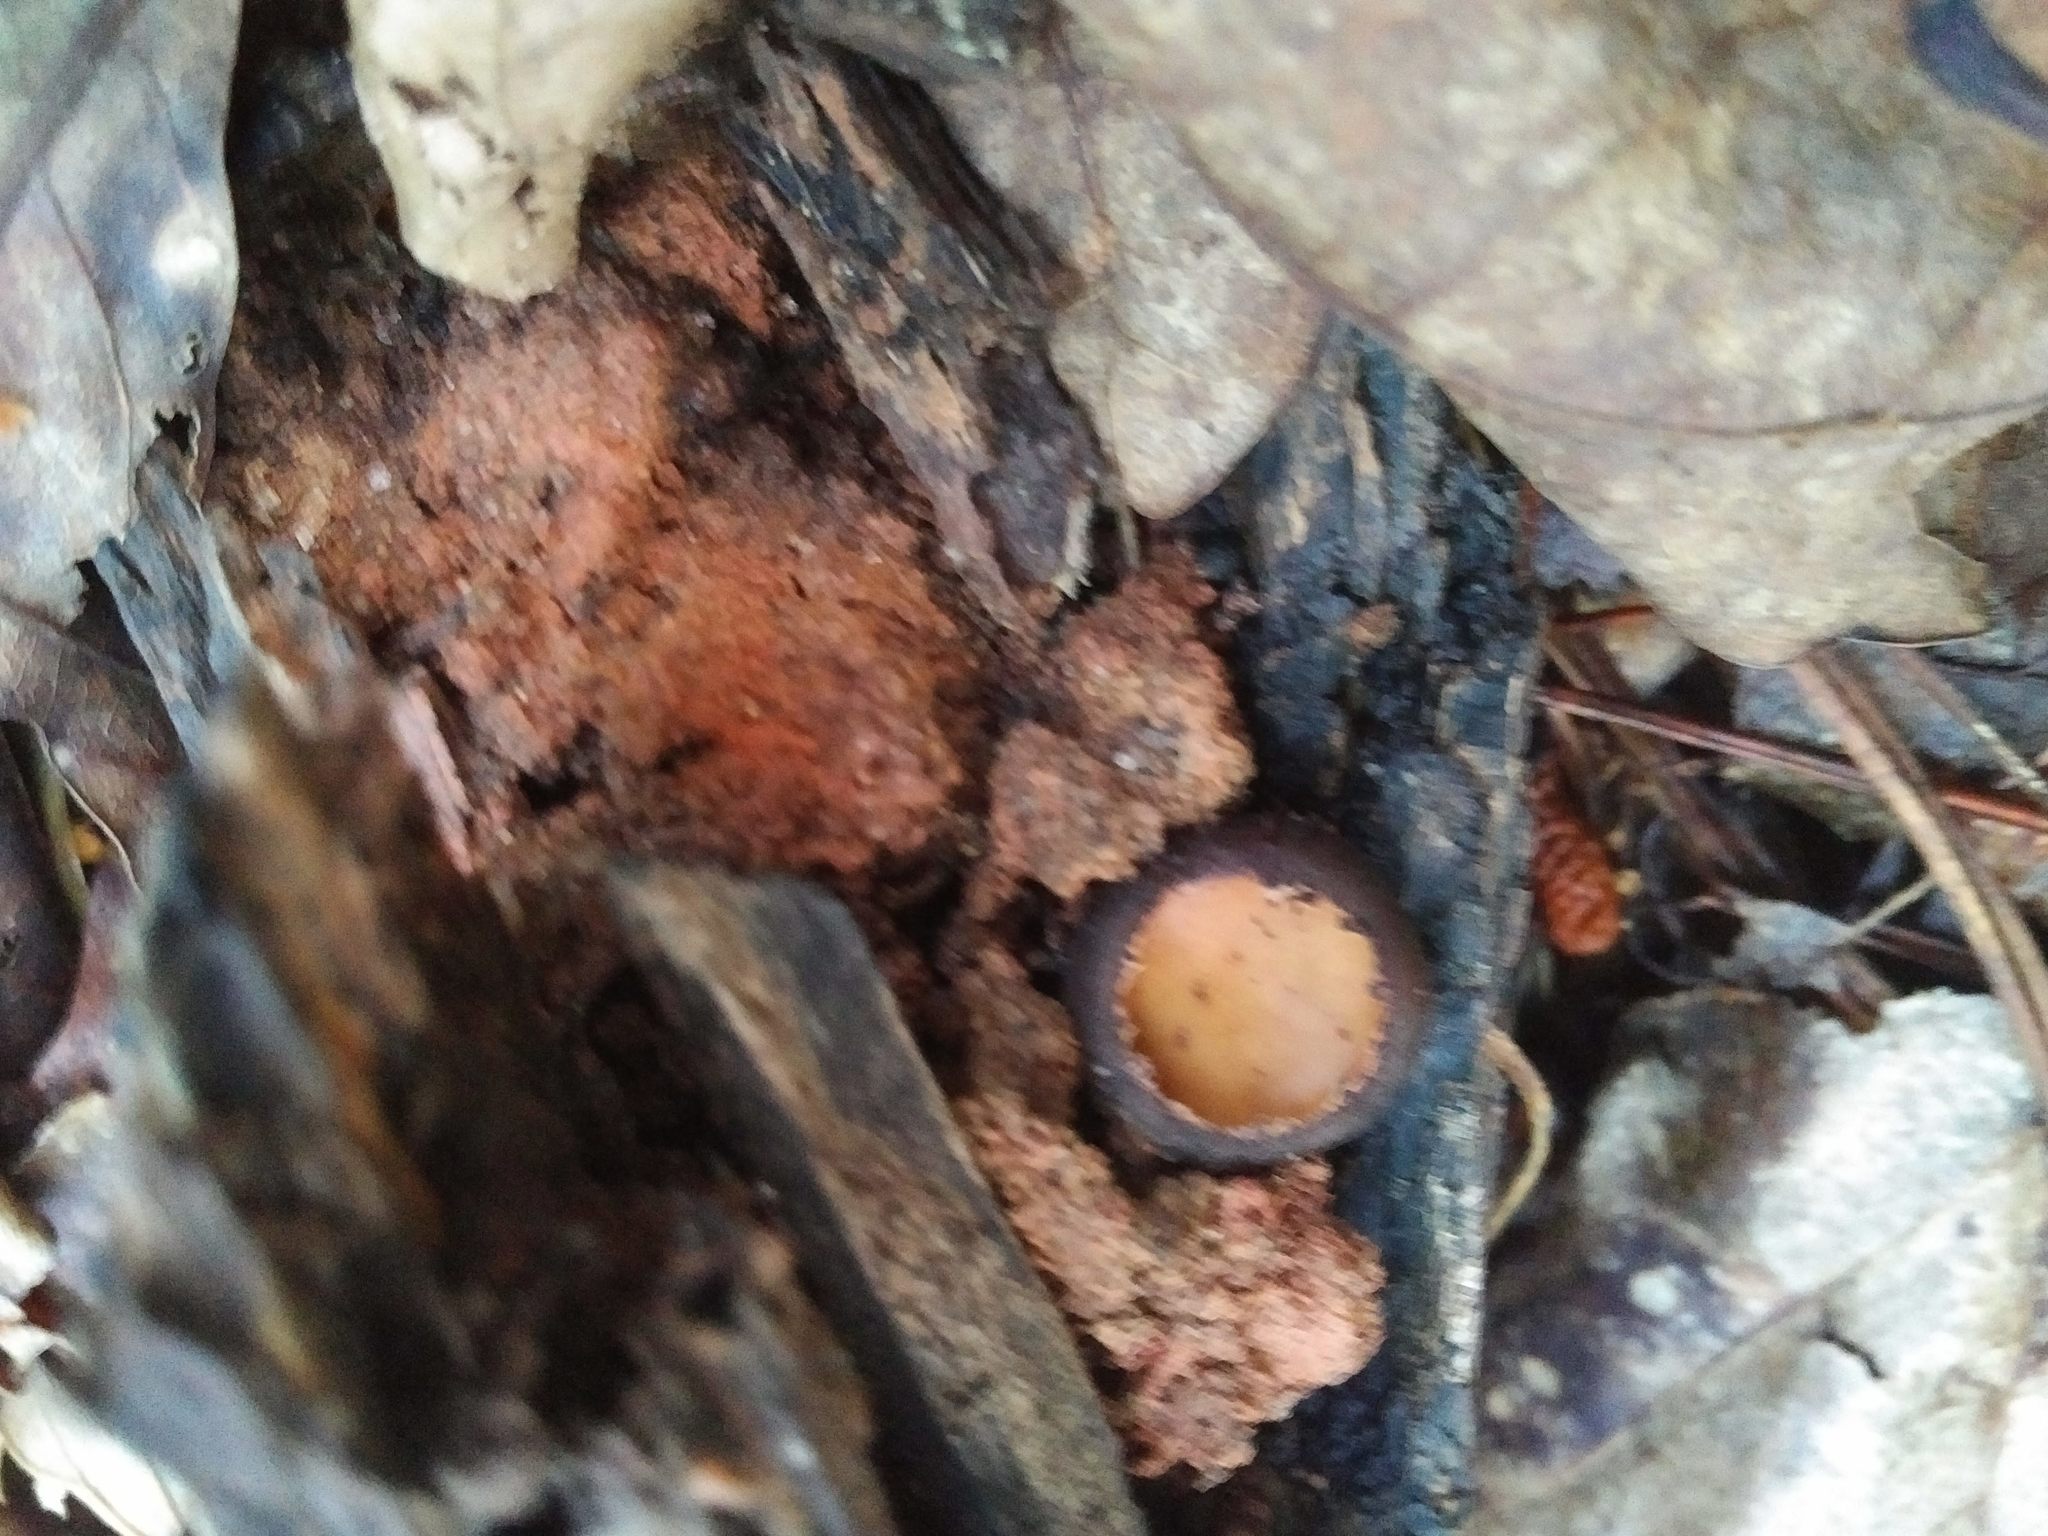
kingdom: Fungi
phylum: Ascomycota
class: Pezizomycetes
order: Pezizales
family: Sarcosomataceae
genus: Galiella
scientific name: Galiella rufa
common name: Hairy rubber cup
